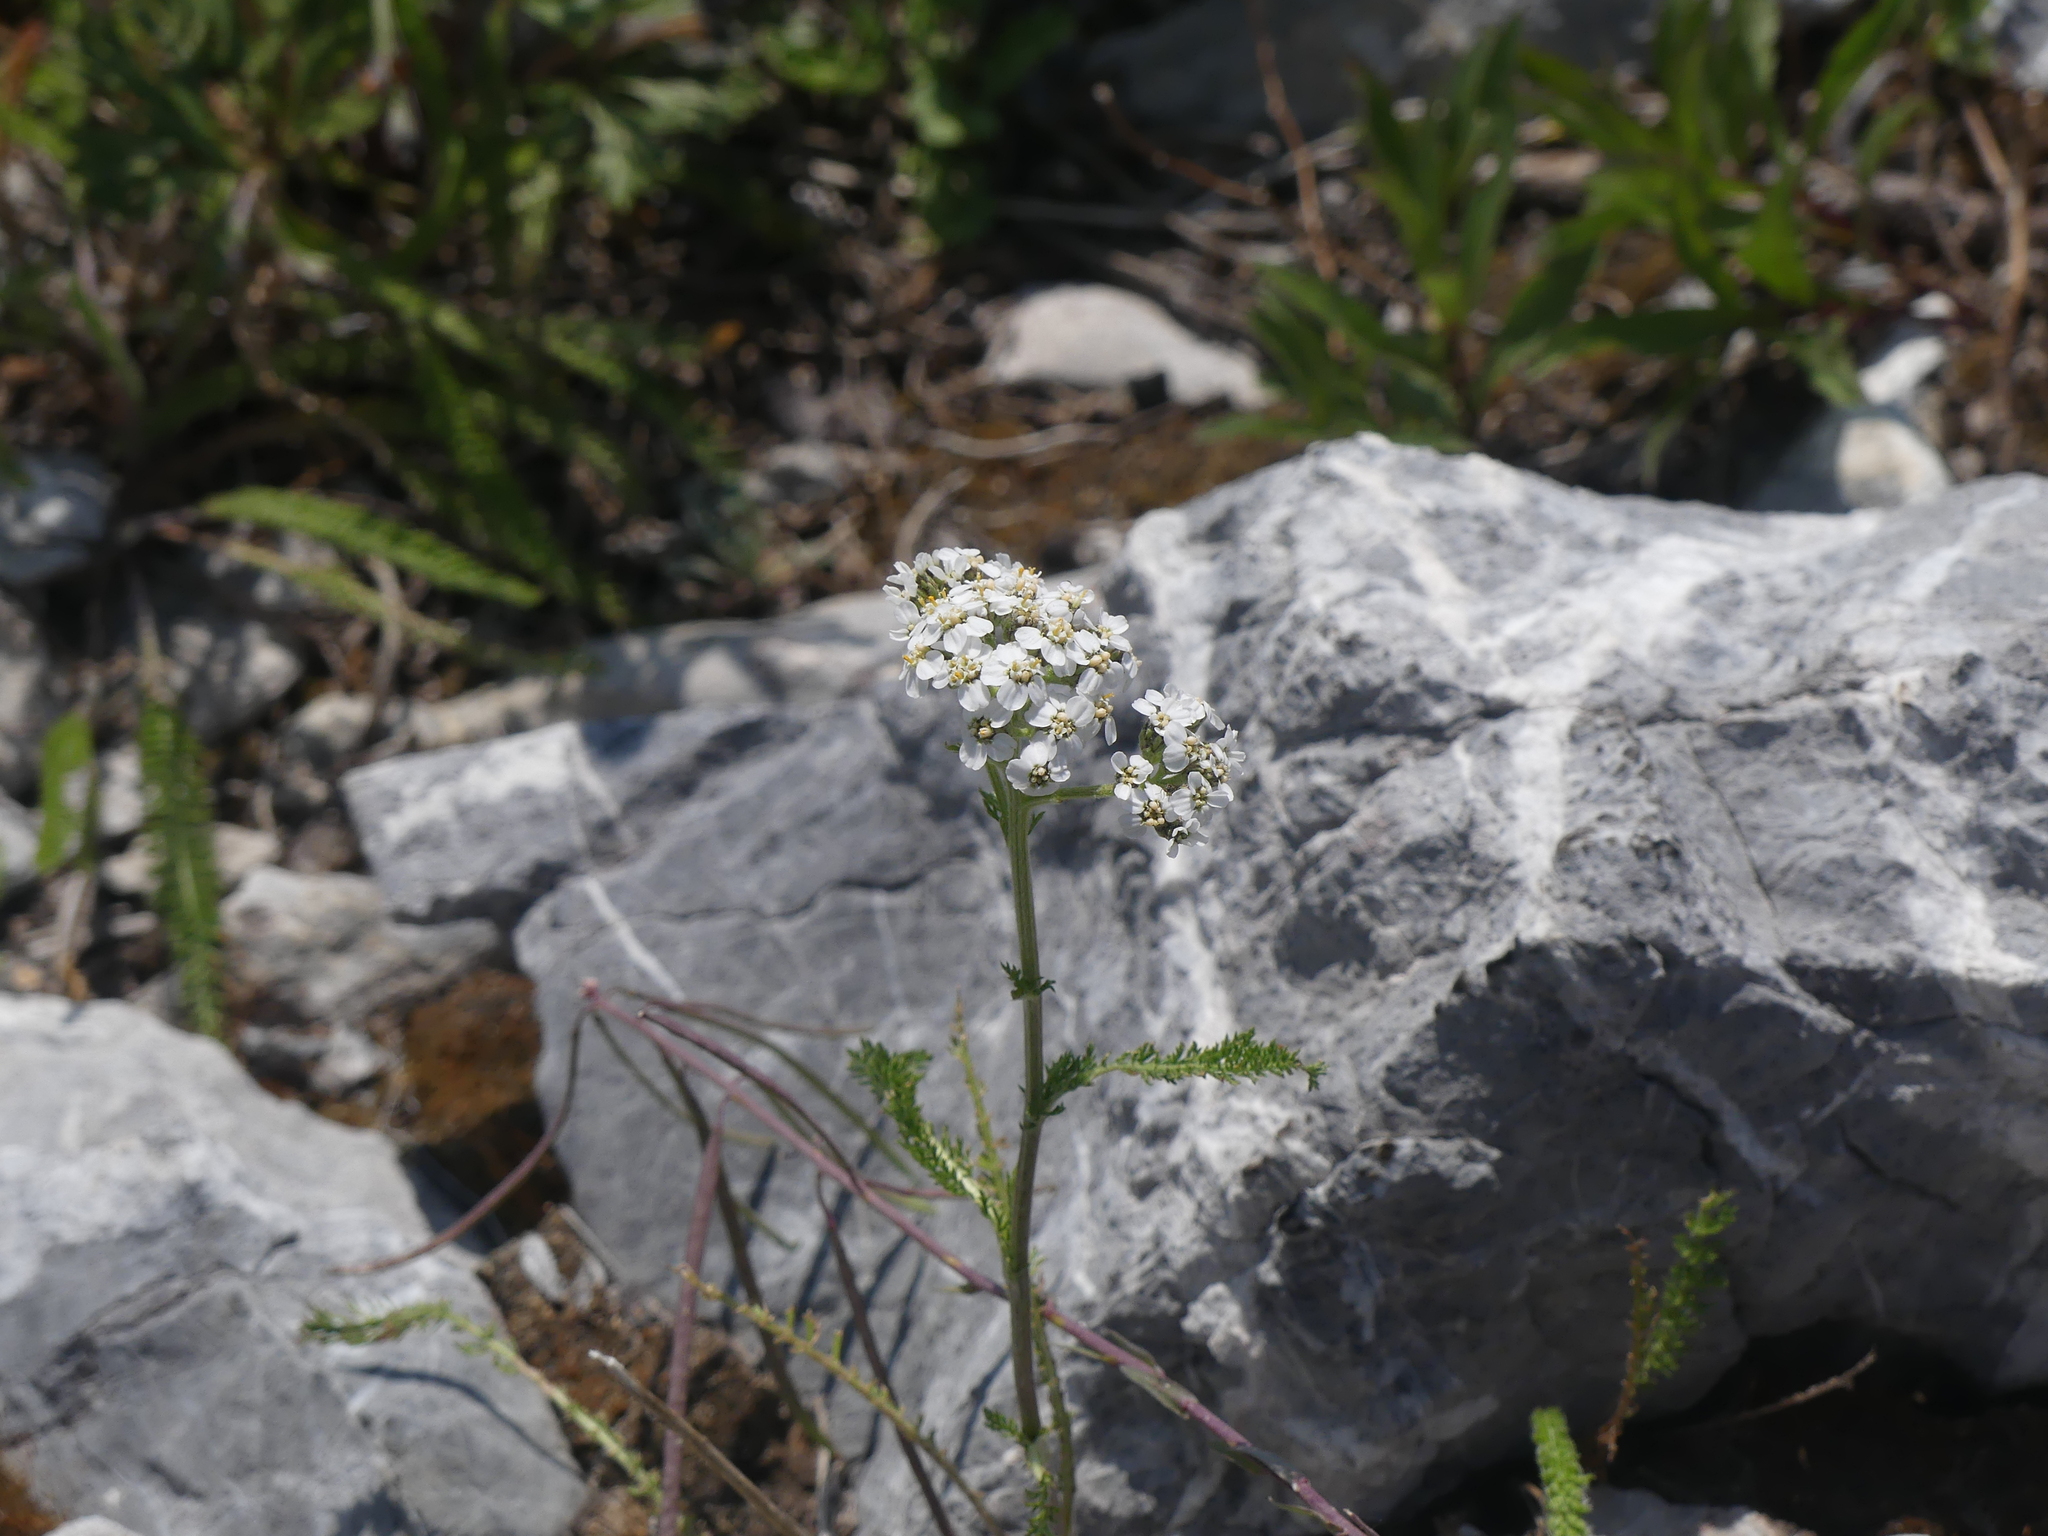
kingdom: Plantae
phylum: Tracheophyta
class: Magnoliopsida
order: Asterales
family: Asteraceae
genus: Achillea
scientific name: Achillea millefolium
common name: Yarrow
